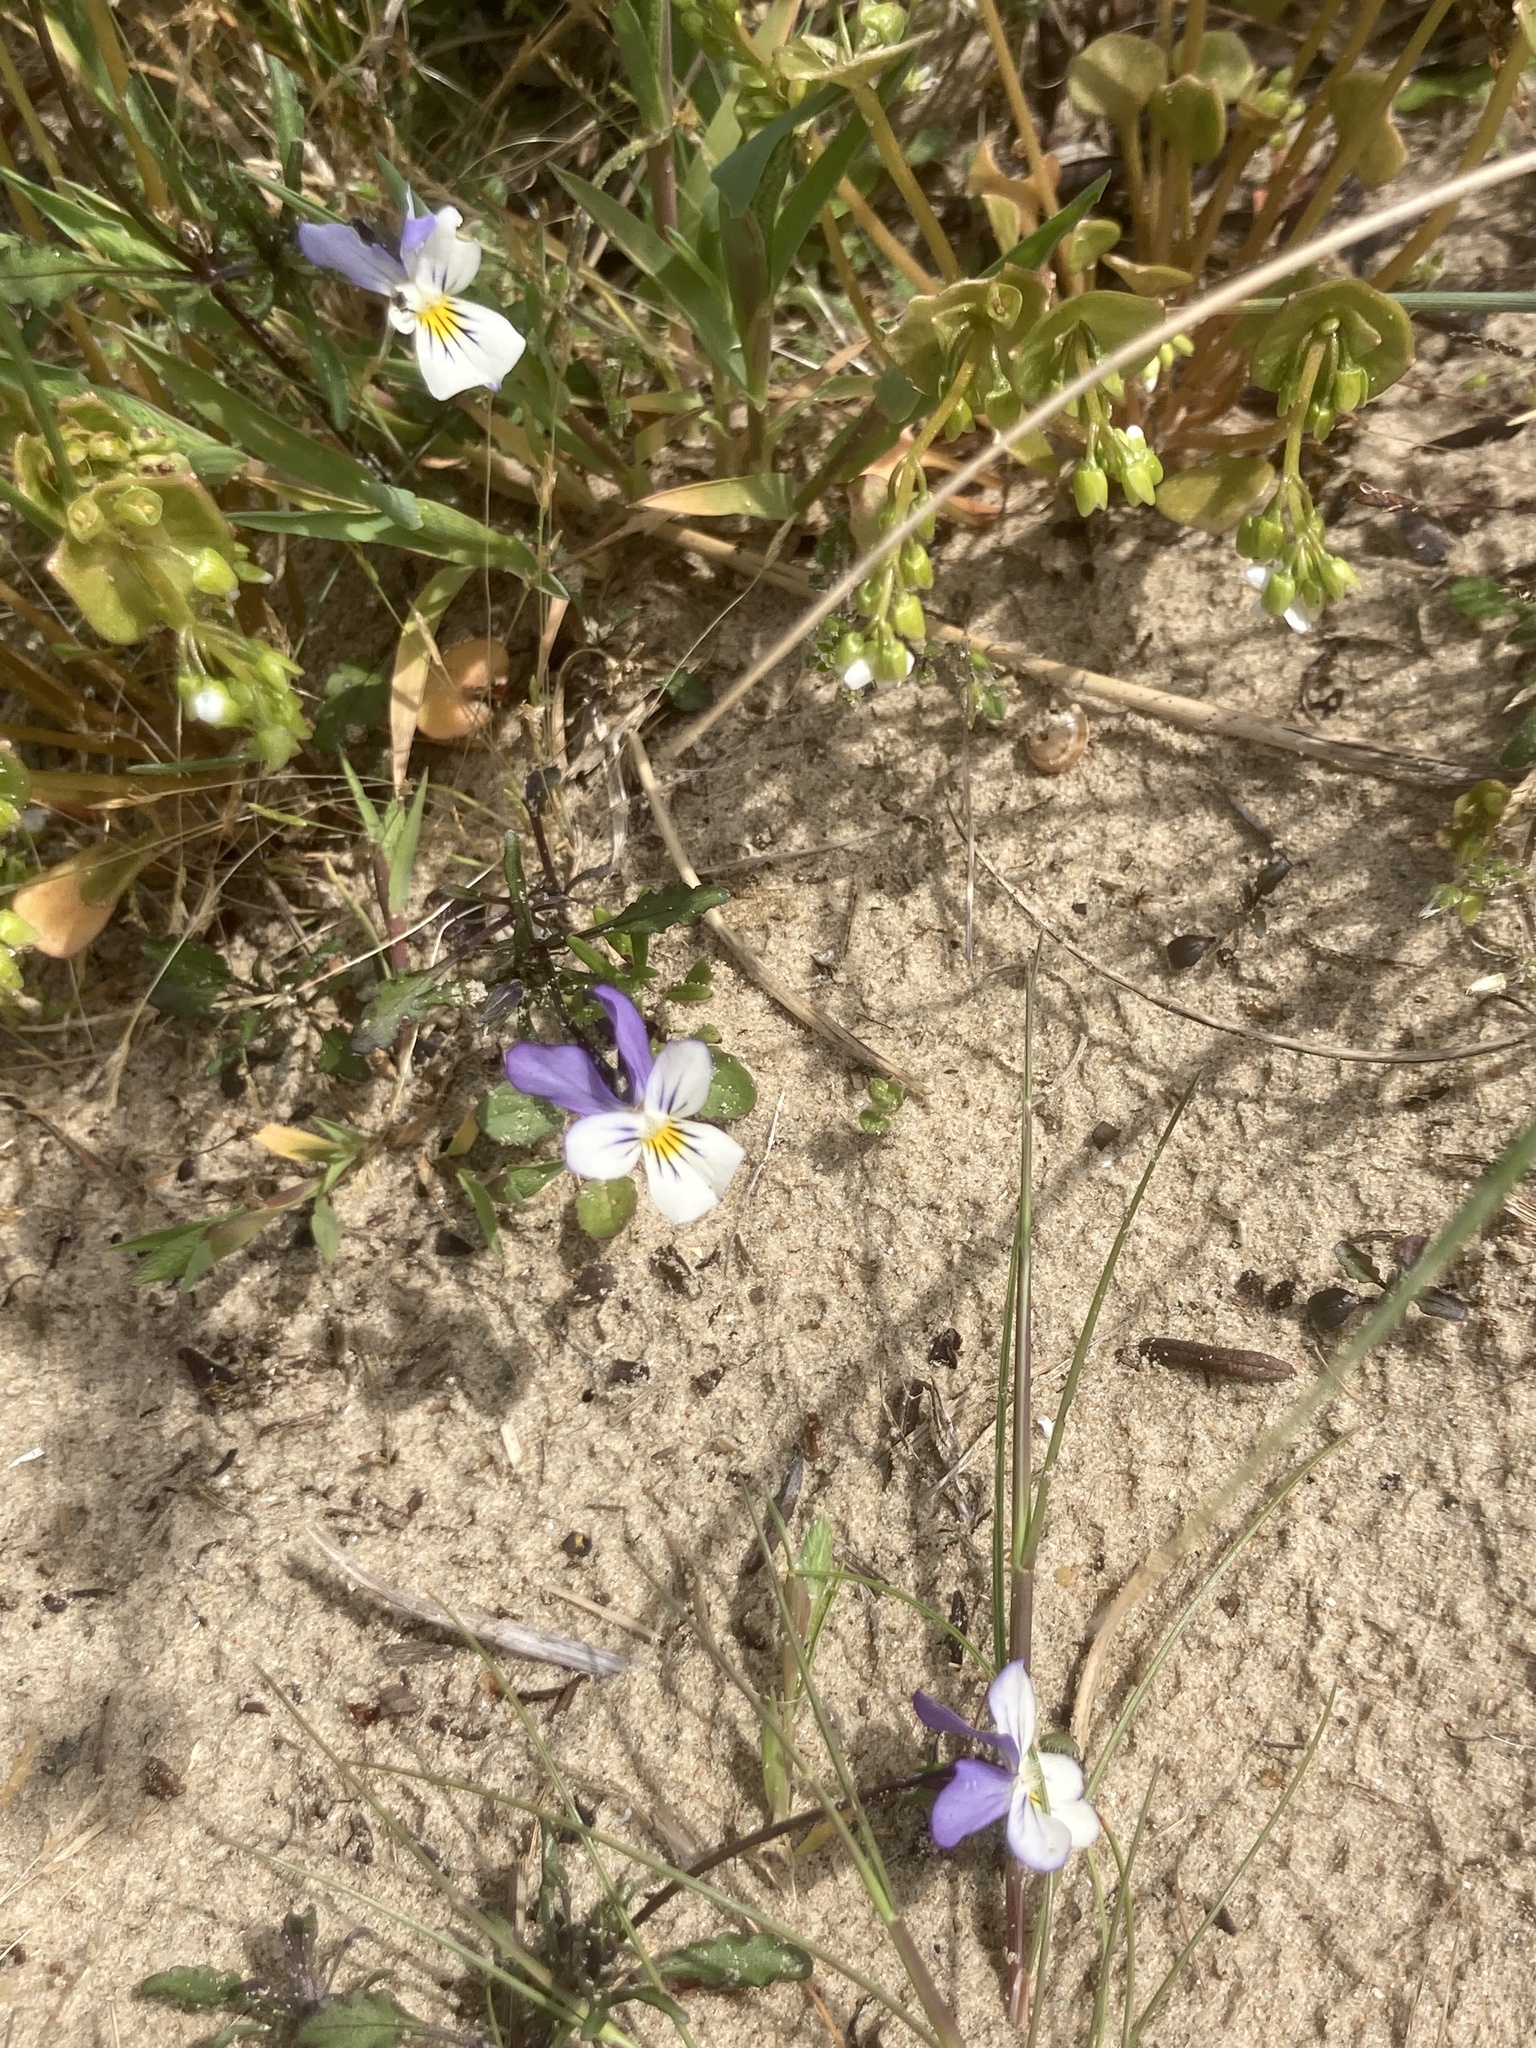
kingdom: Plantae
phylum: Tracheophyta
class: Magnoliopsida
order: Malpighiales
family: Violaceae
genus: Viola
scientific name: Viola tricolor
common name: Pansy
